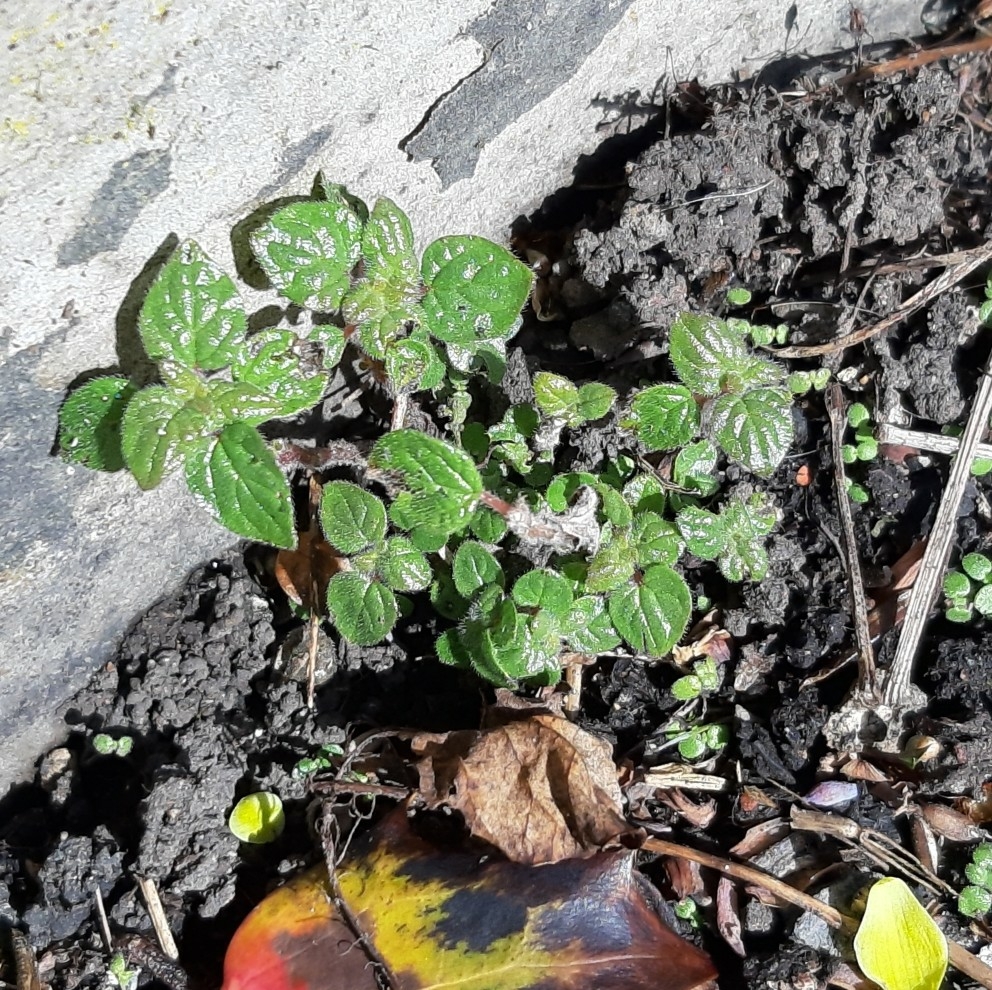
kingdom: Plantae
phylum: Tracheophyta
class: Magnoliopsida
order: Rosales
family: Urticaceae
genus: Parietaria
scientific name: Parietaria judaica
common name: Pellitory-of-the-wall
